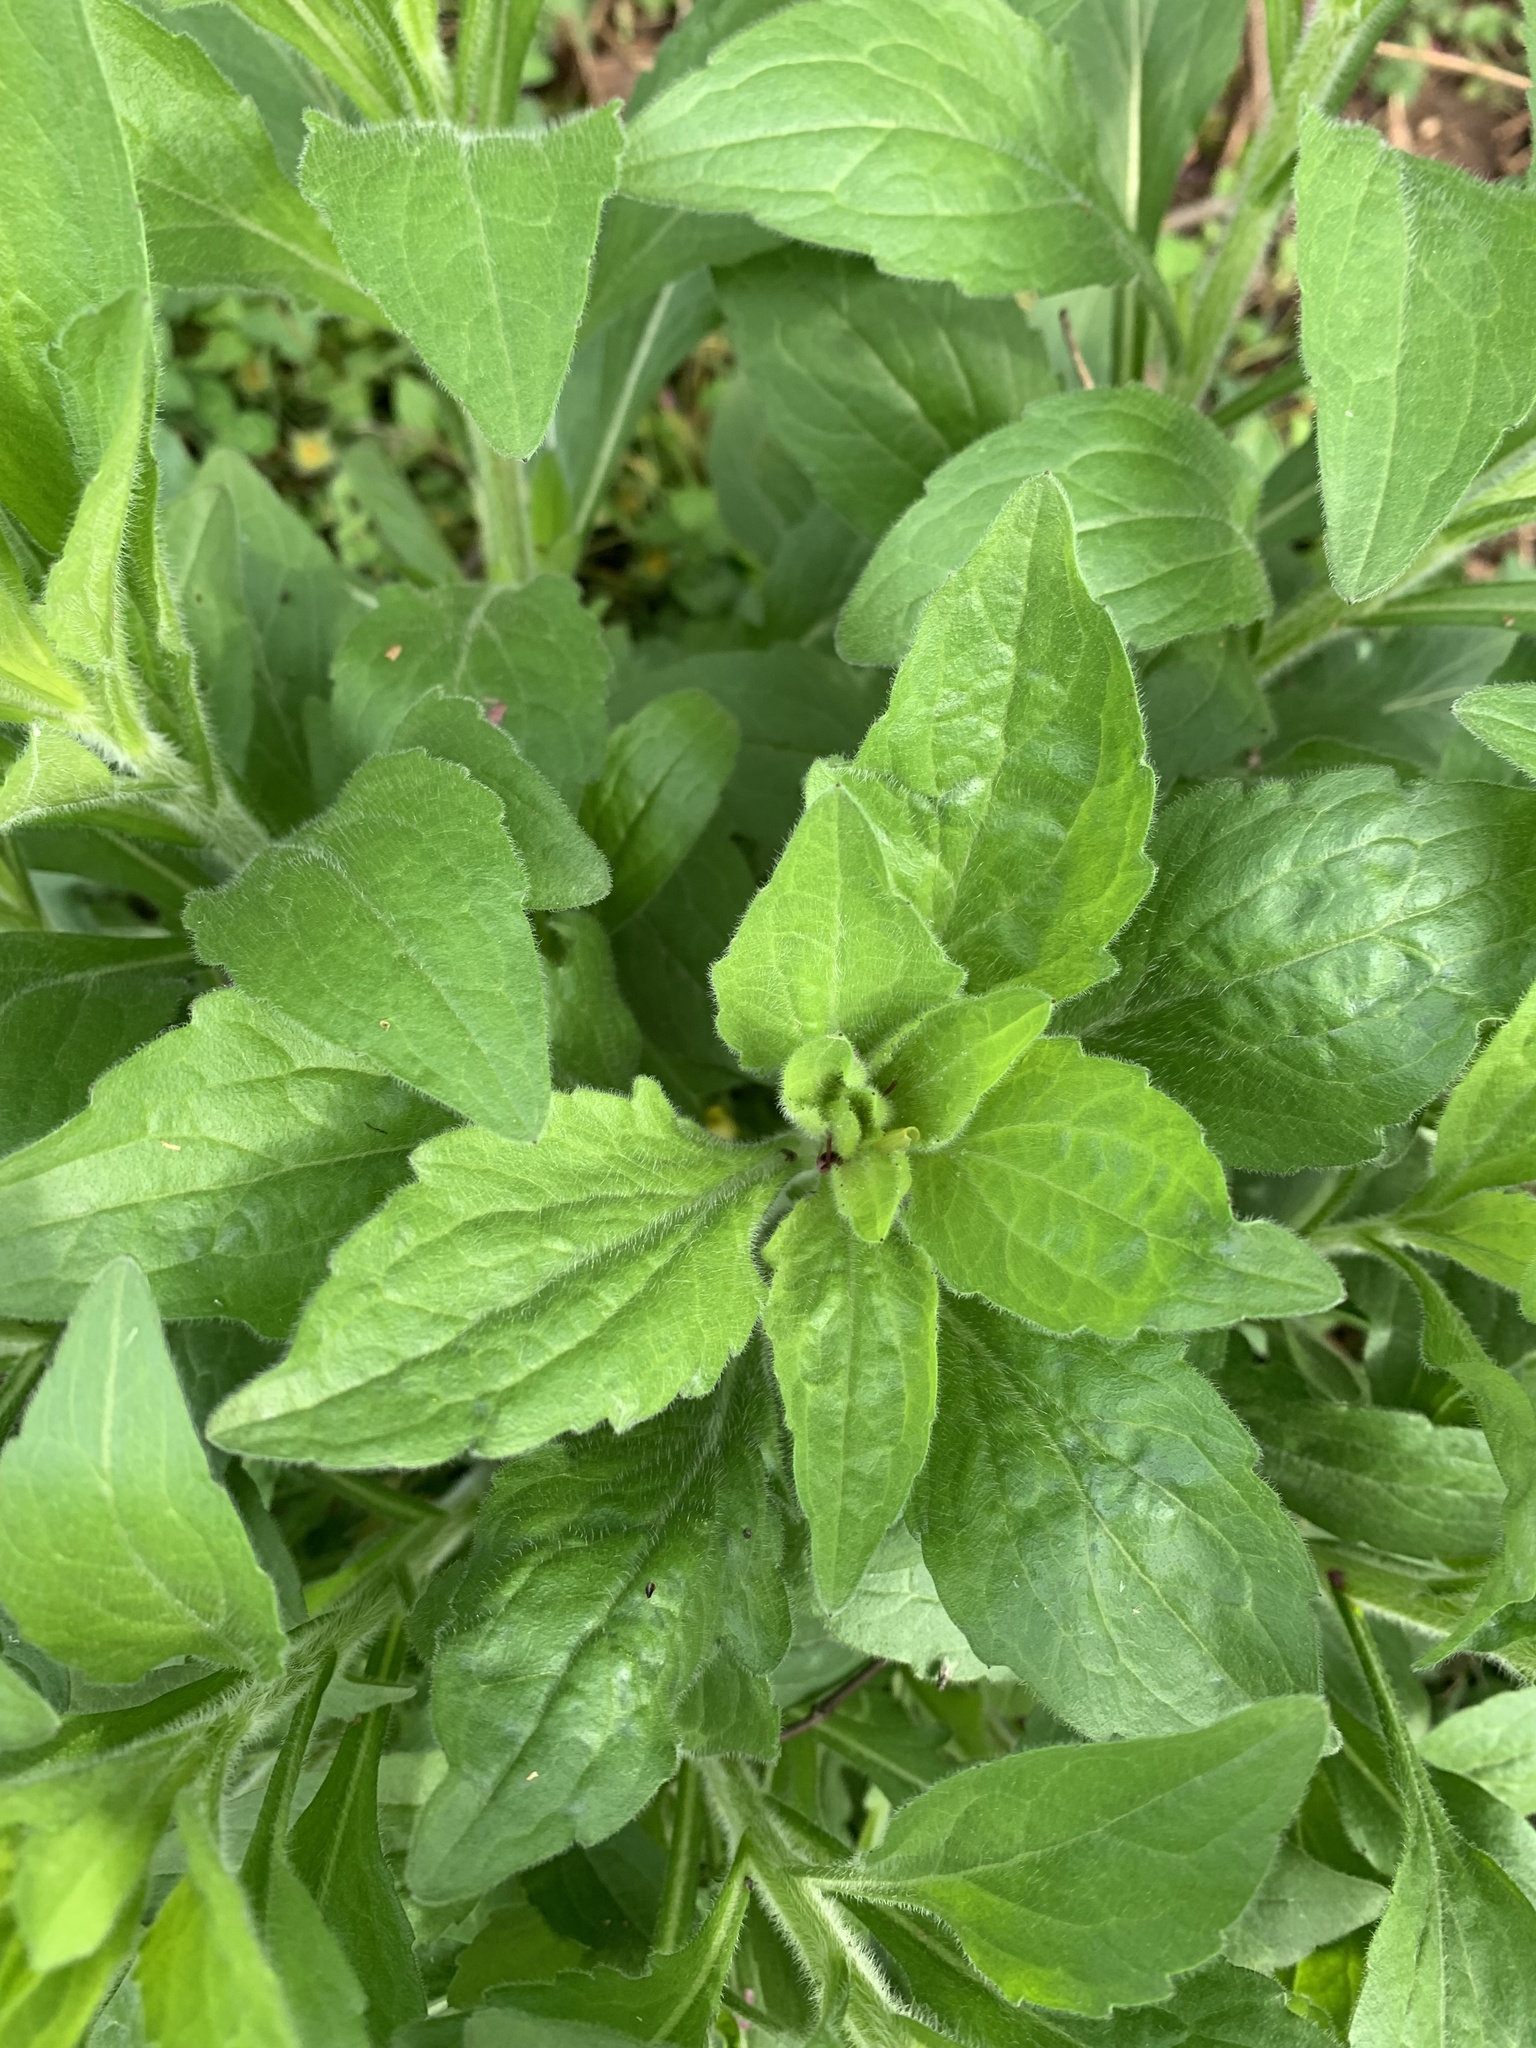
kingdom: Plantae
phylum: Tracheophyta
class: Magnoliopsida
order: Asterales
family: Asteraceae
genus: Erigeron
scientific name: Erigeron annuus
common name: Tall fleabane
